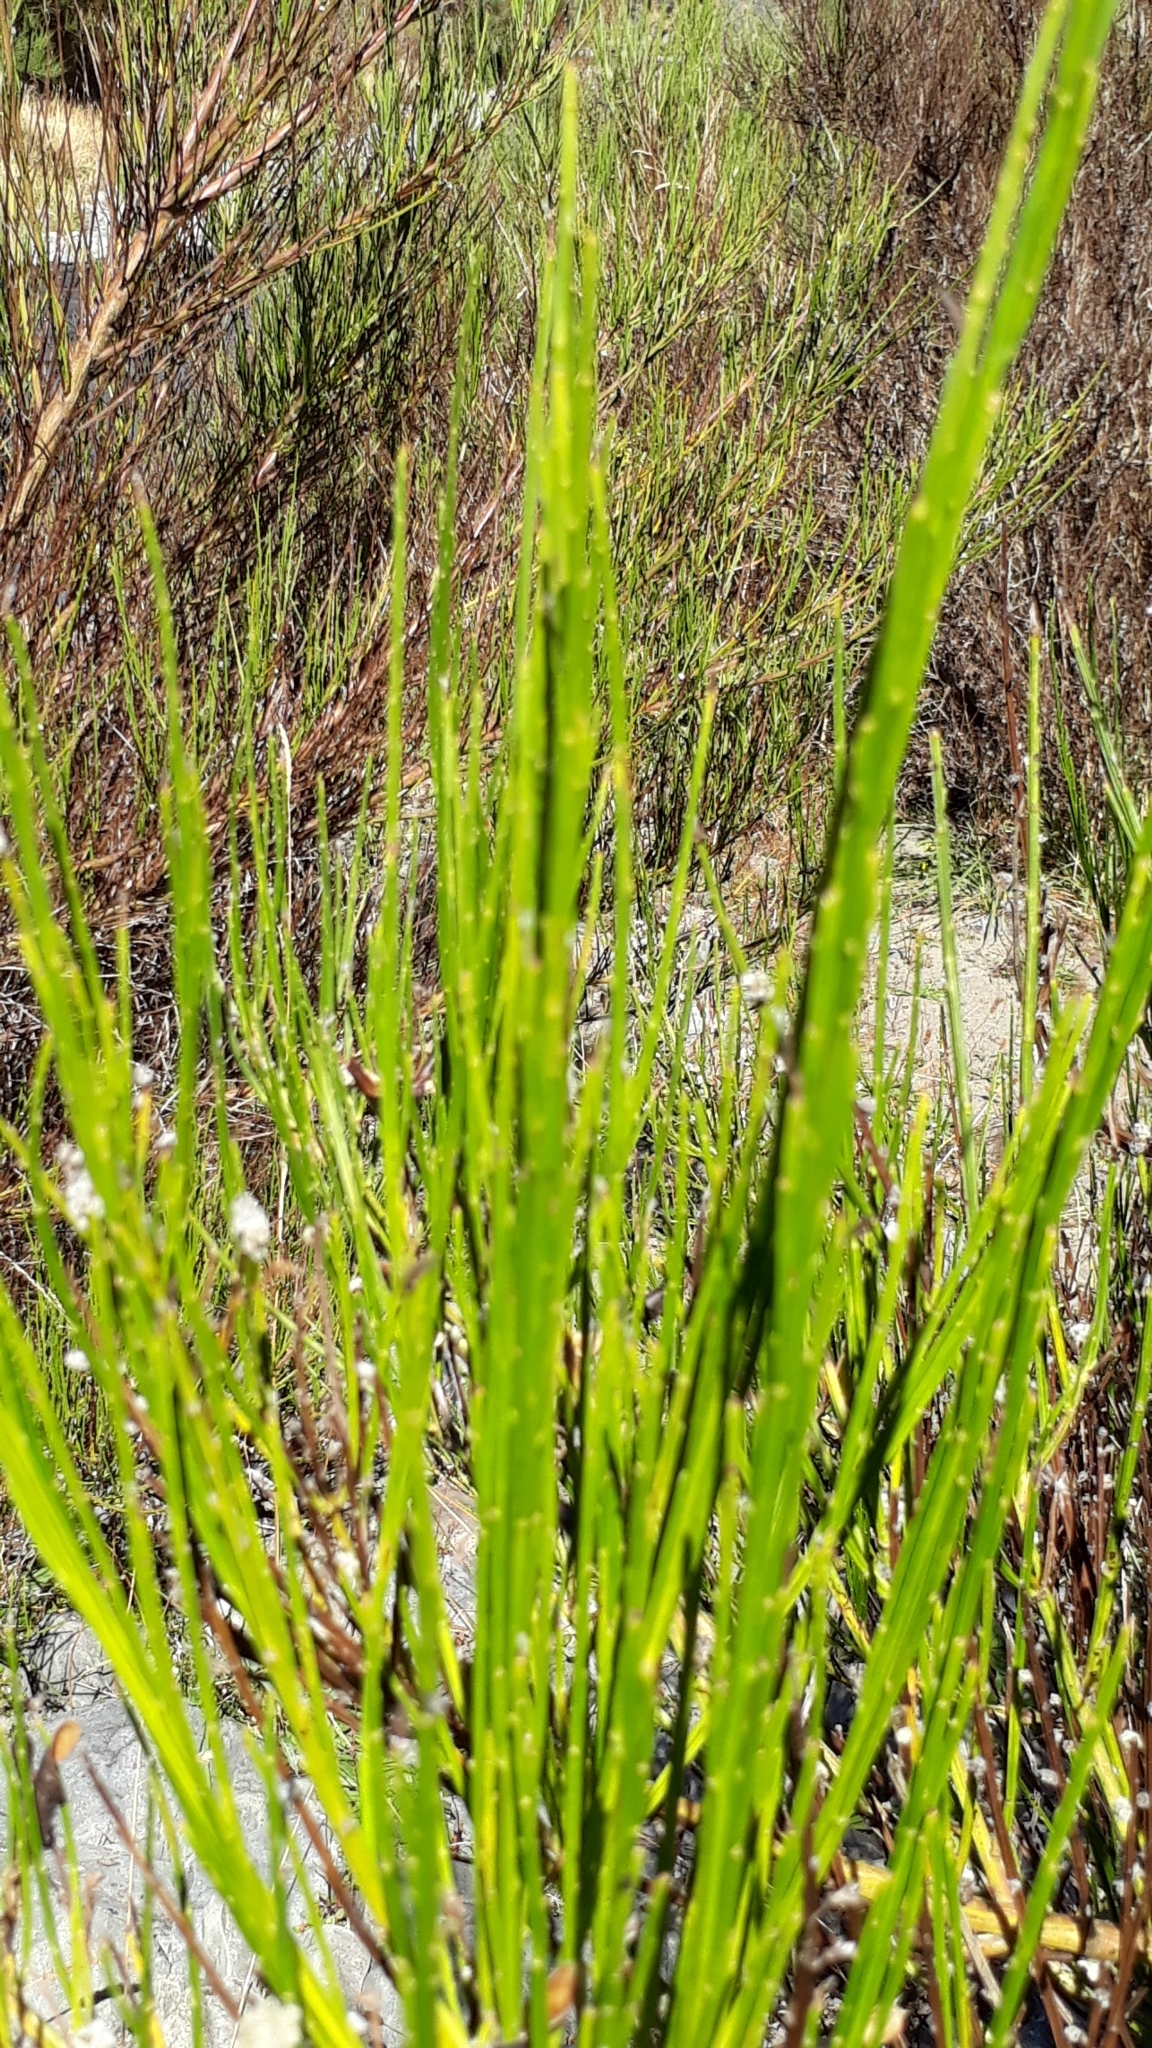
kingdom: Plantae
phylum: Tracheophyta
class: Magnoliopsida
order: Fabales
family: Fabaceae
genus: Cytisus
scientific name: Cytisus scoparius
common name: Scotch broom
